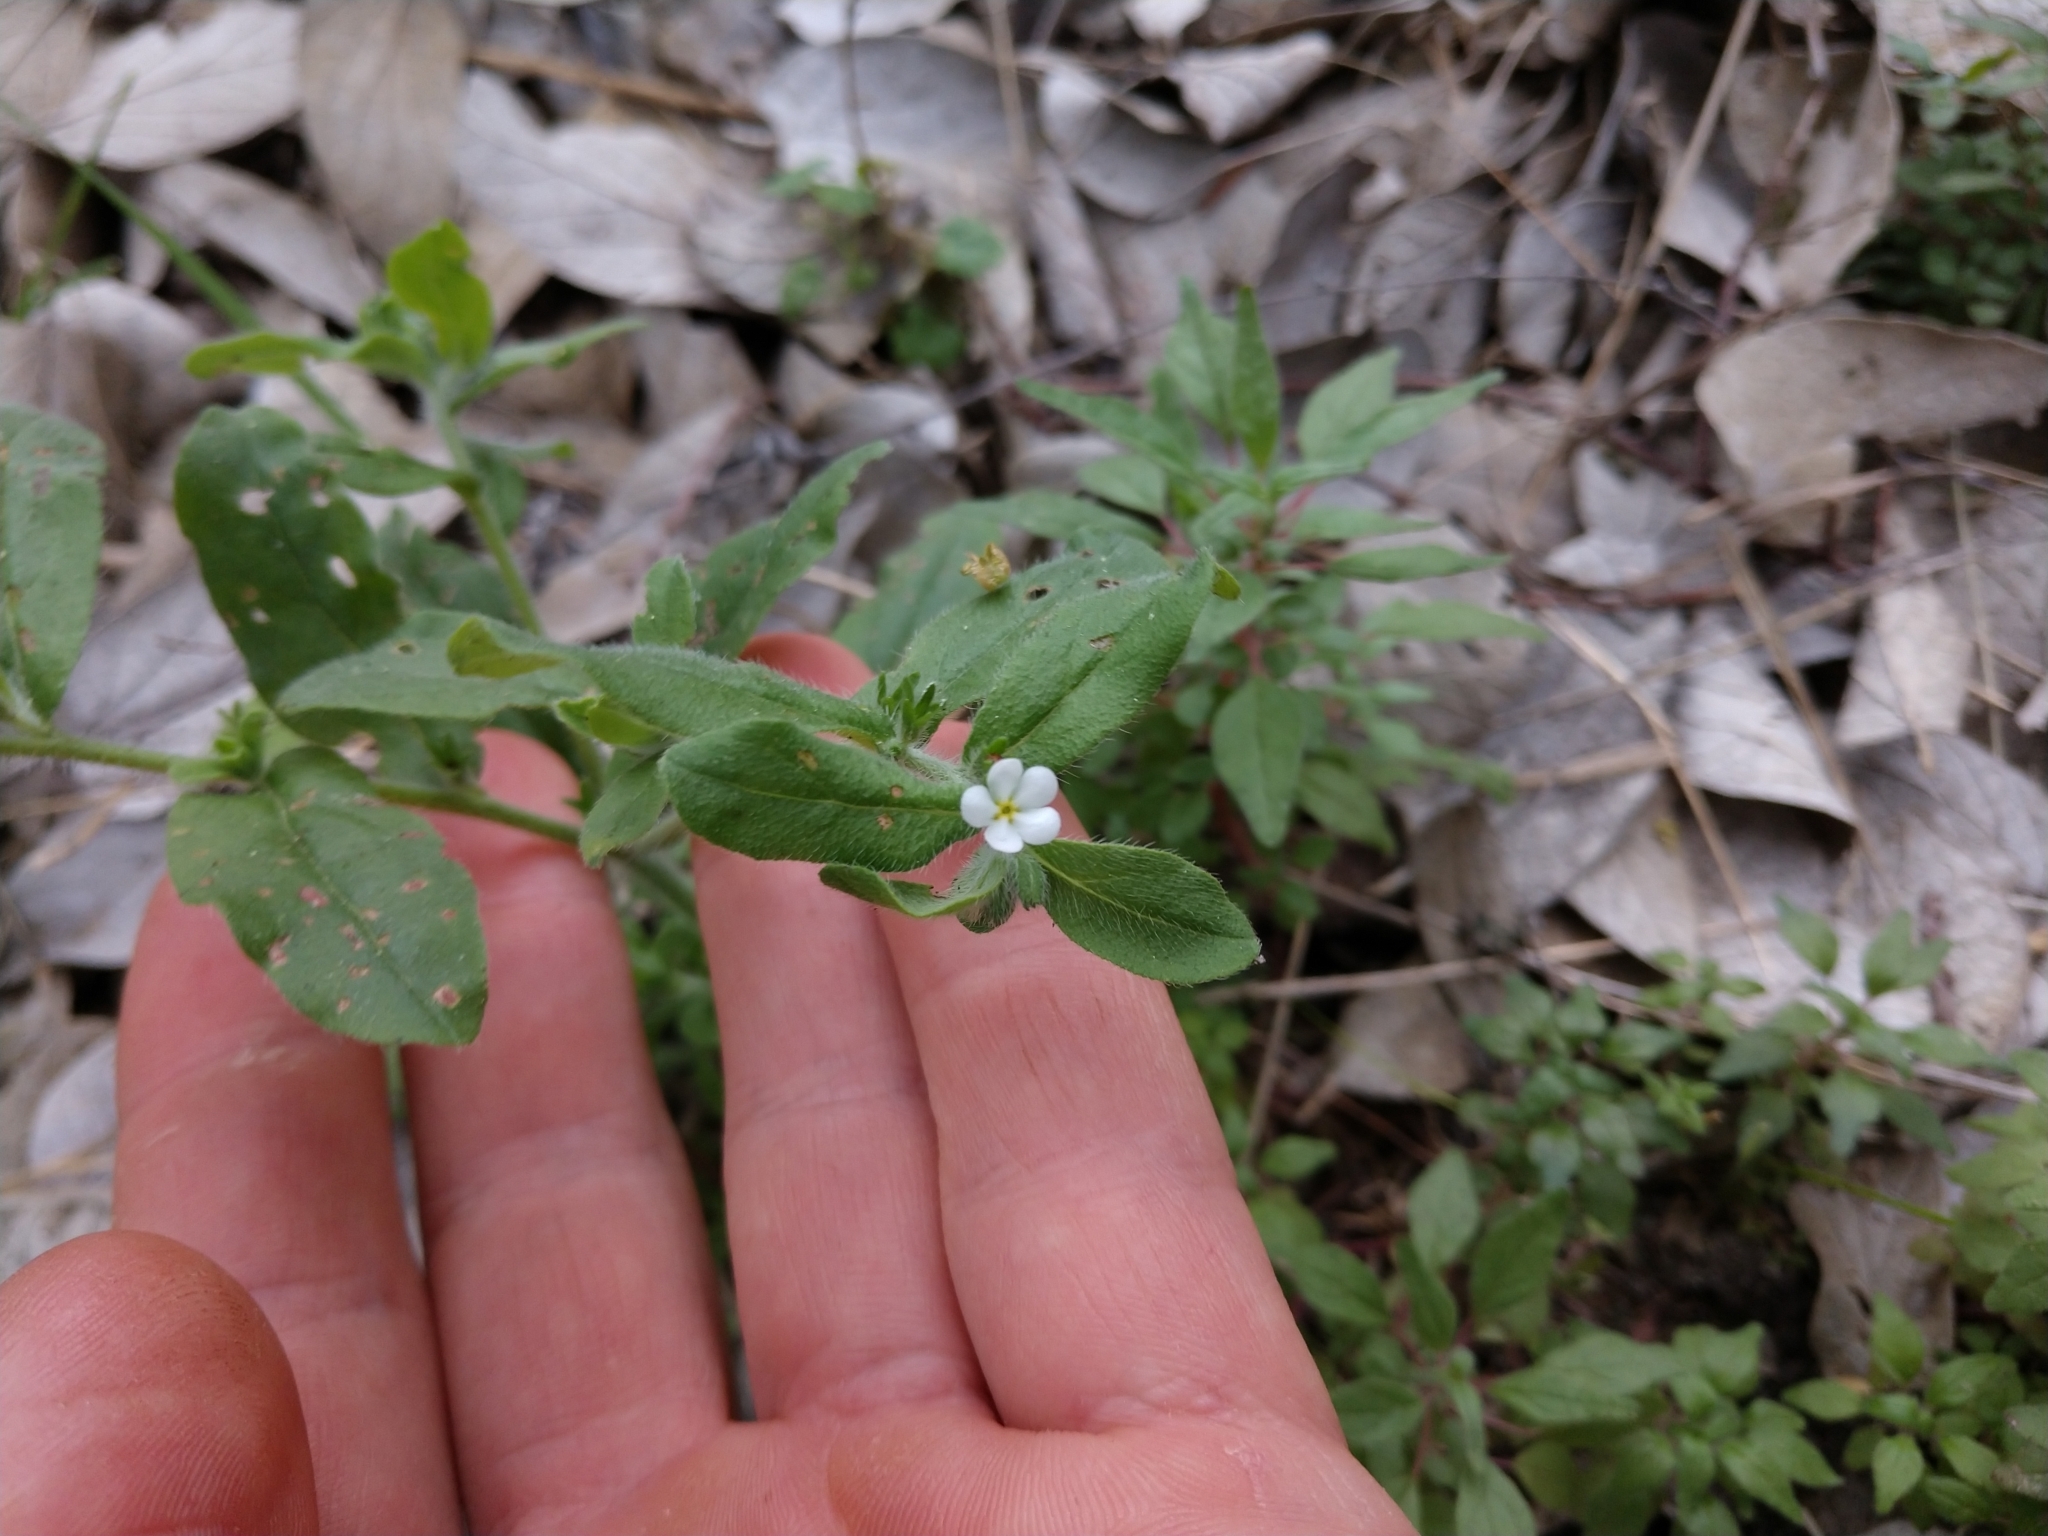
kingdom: Plantae
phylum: Tracheophyta
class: Magnoliopsida
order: Boraginales
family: Boraginaceae
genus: Lithospermum
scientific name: Lithospermum matamorense
